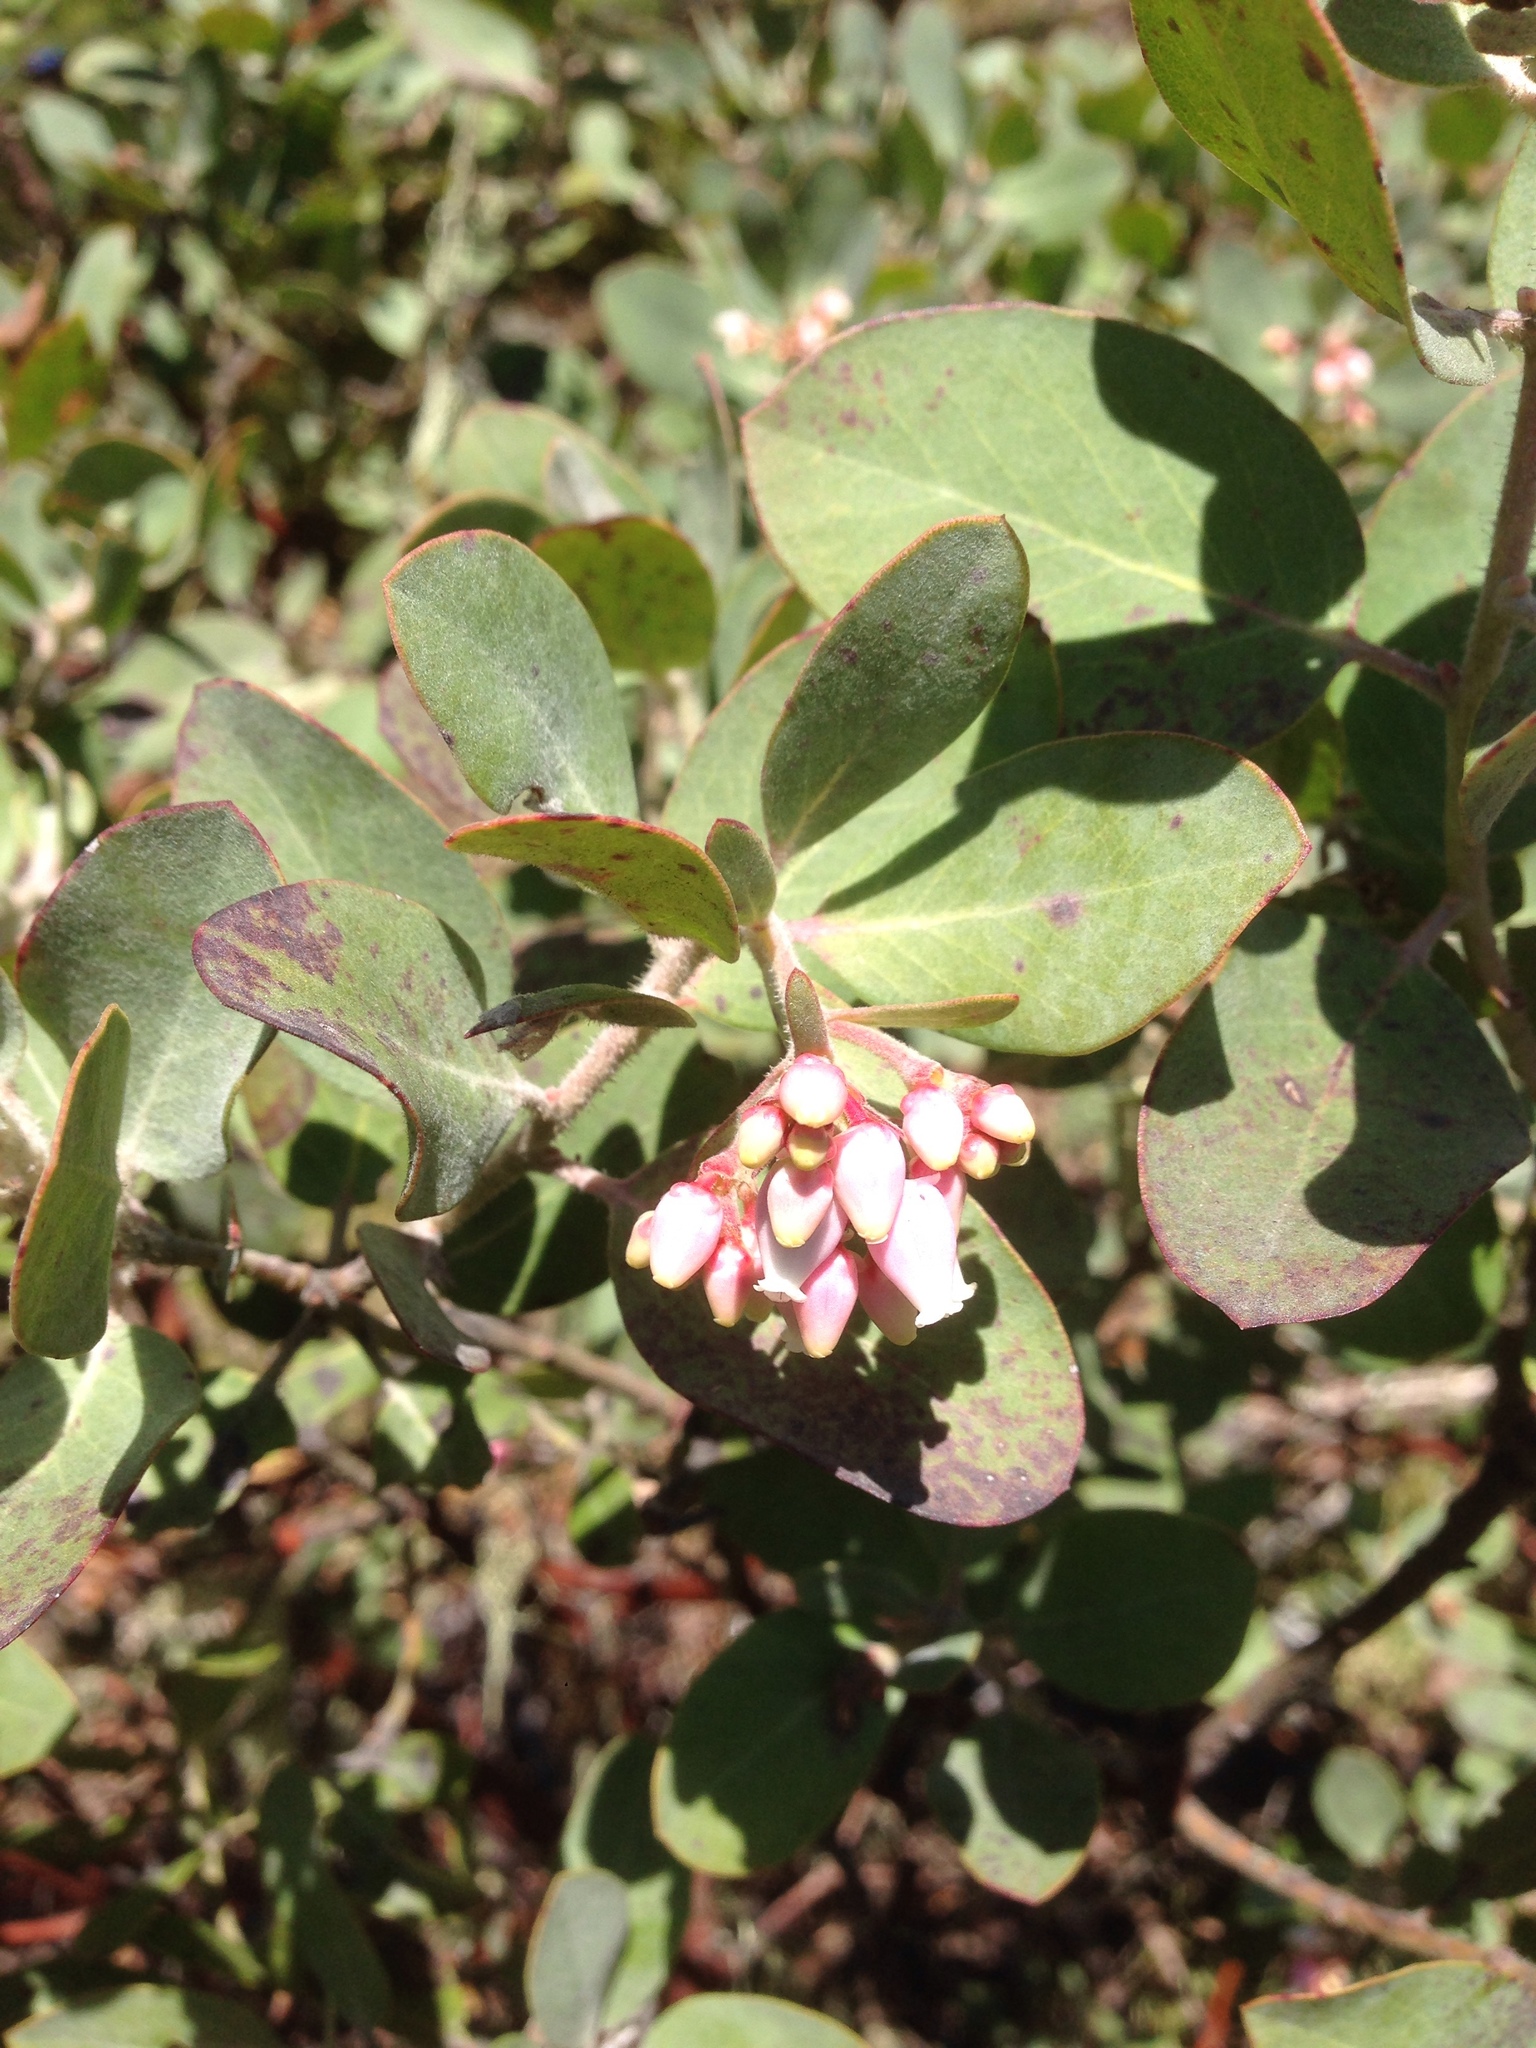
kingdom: Plantae
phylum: Tracheophyta
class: Magnoliopsida
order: Ericales
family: Ericaceae
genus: Arctostaphylos
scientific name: Arctostaphylos columbiana
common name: Bristly bearberry
